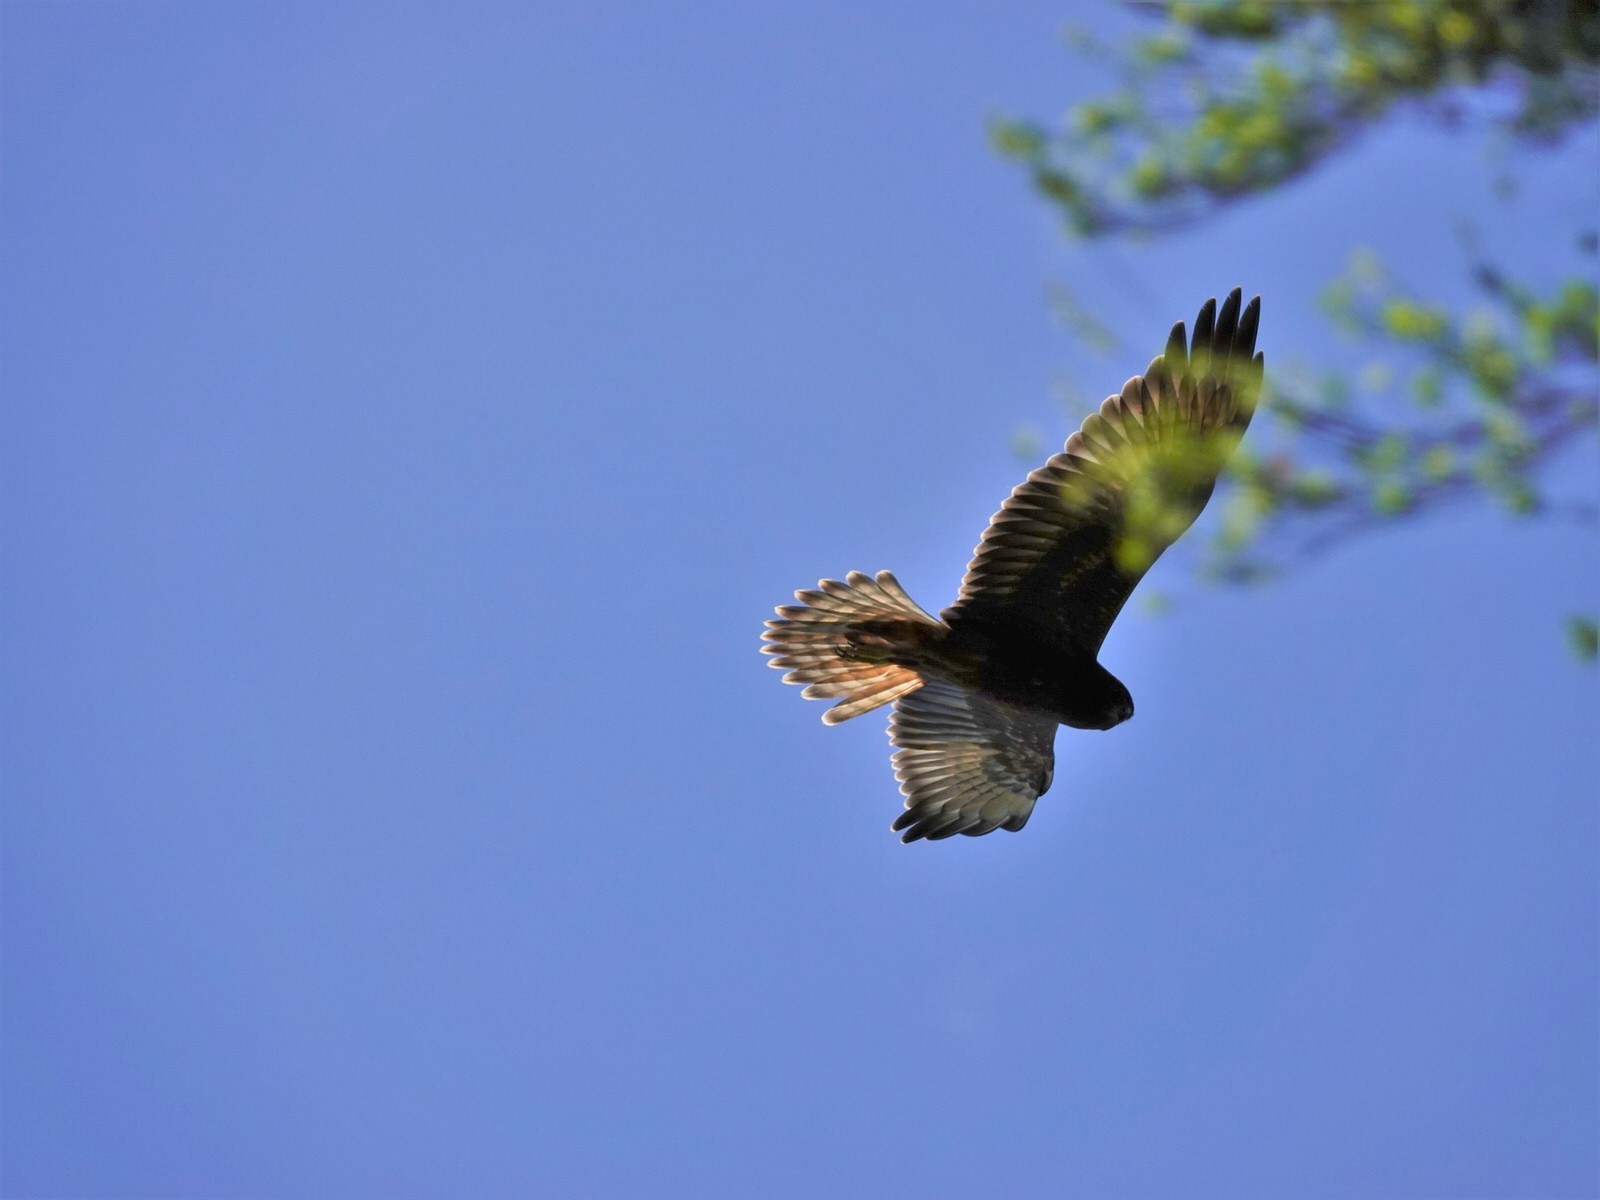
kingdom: Animalia
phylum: Chordata
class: Aves
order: Accipitriformes
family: Accipitridae
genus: Circus
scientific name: Circus approximans
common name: Swamp harrier
